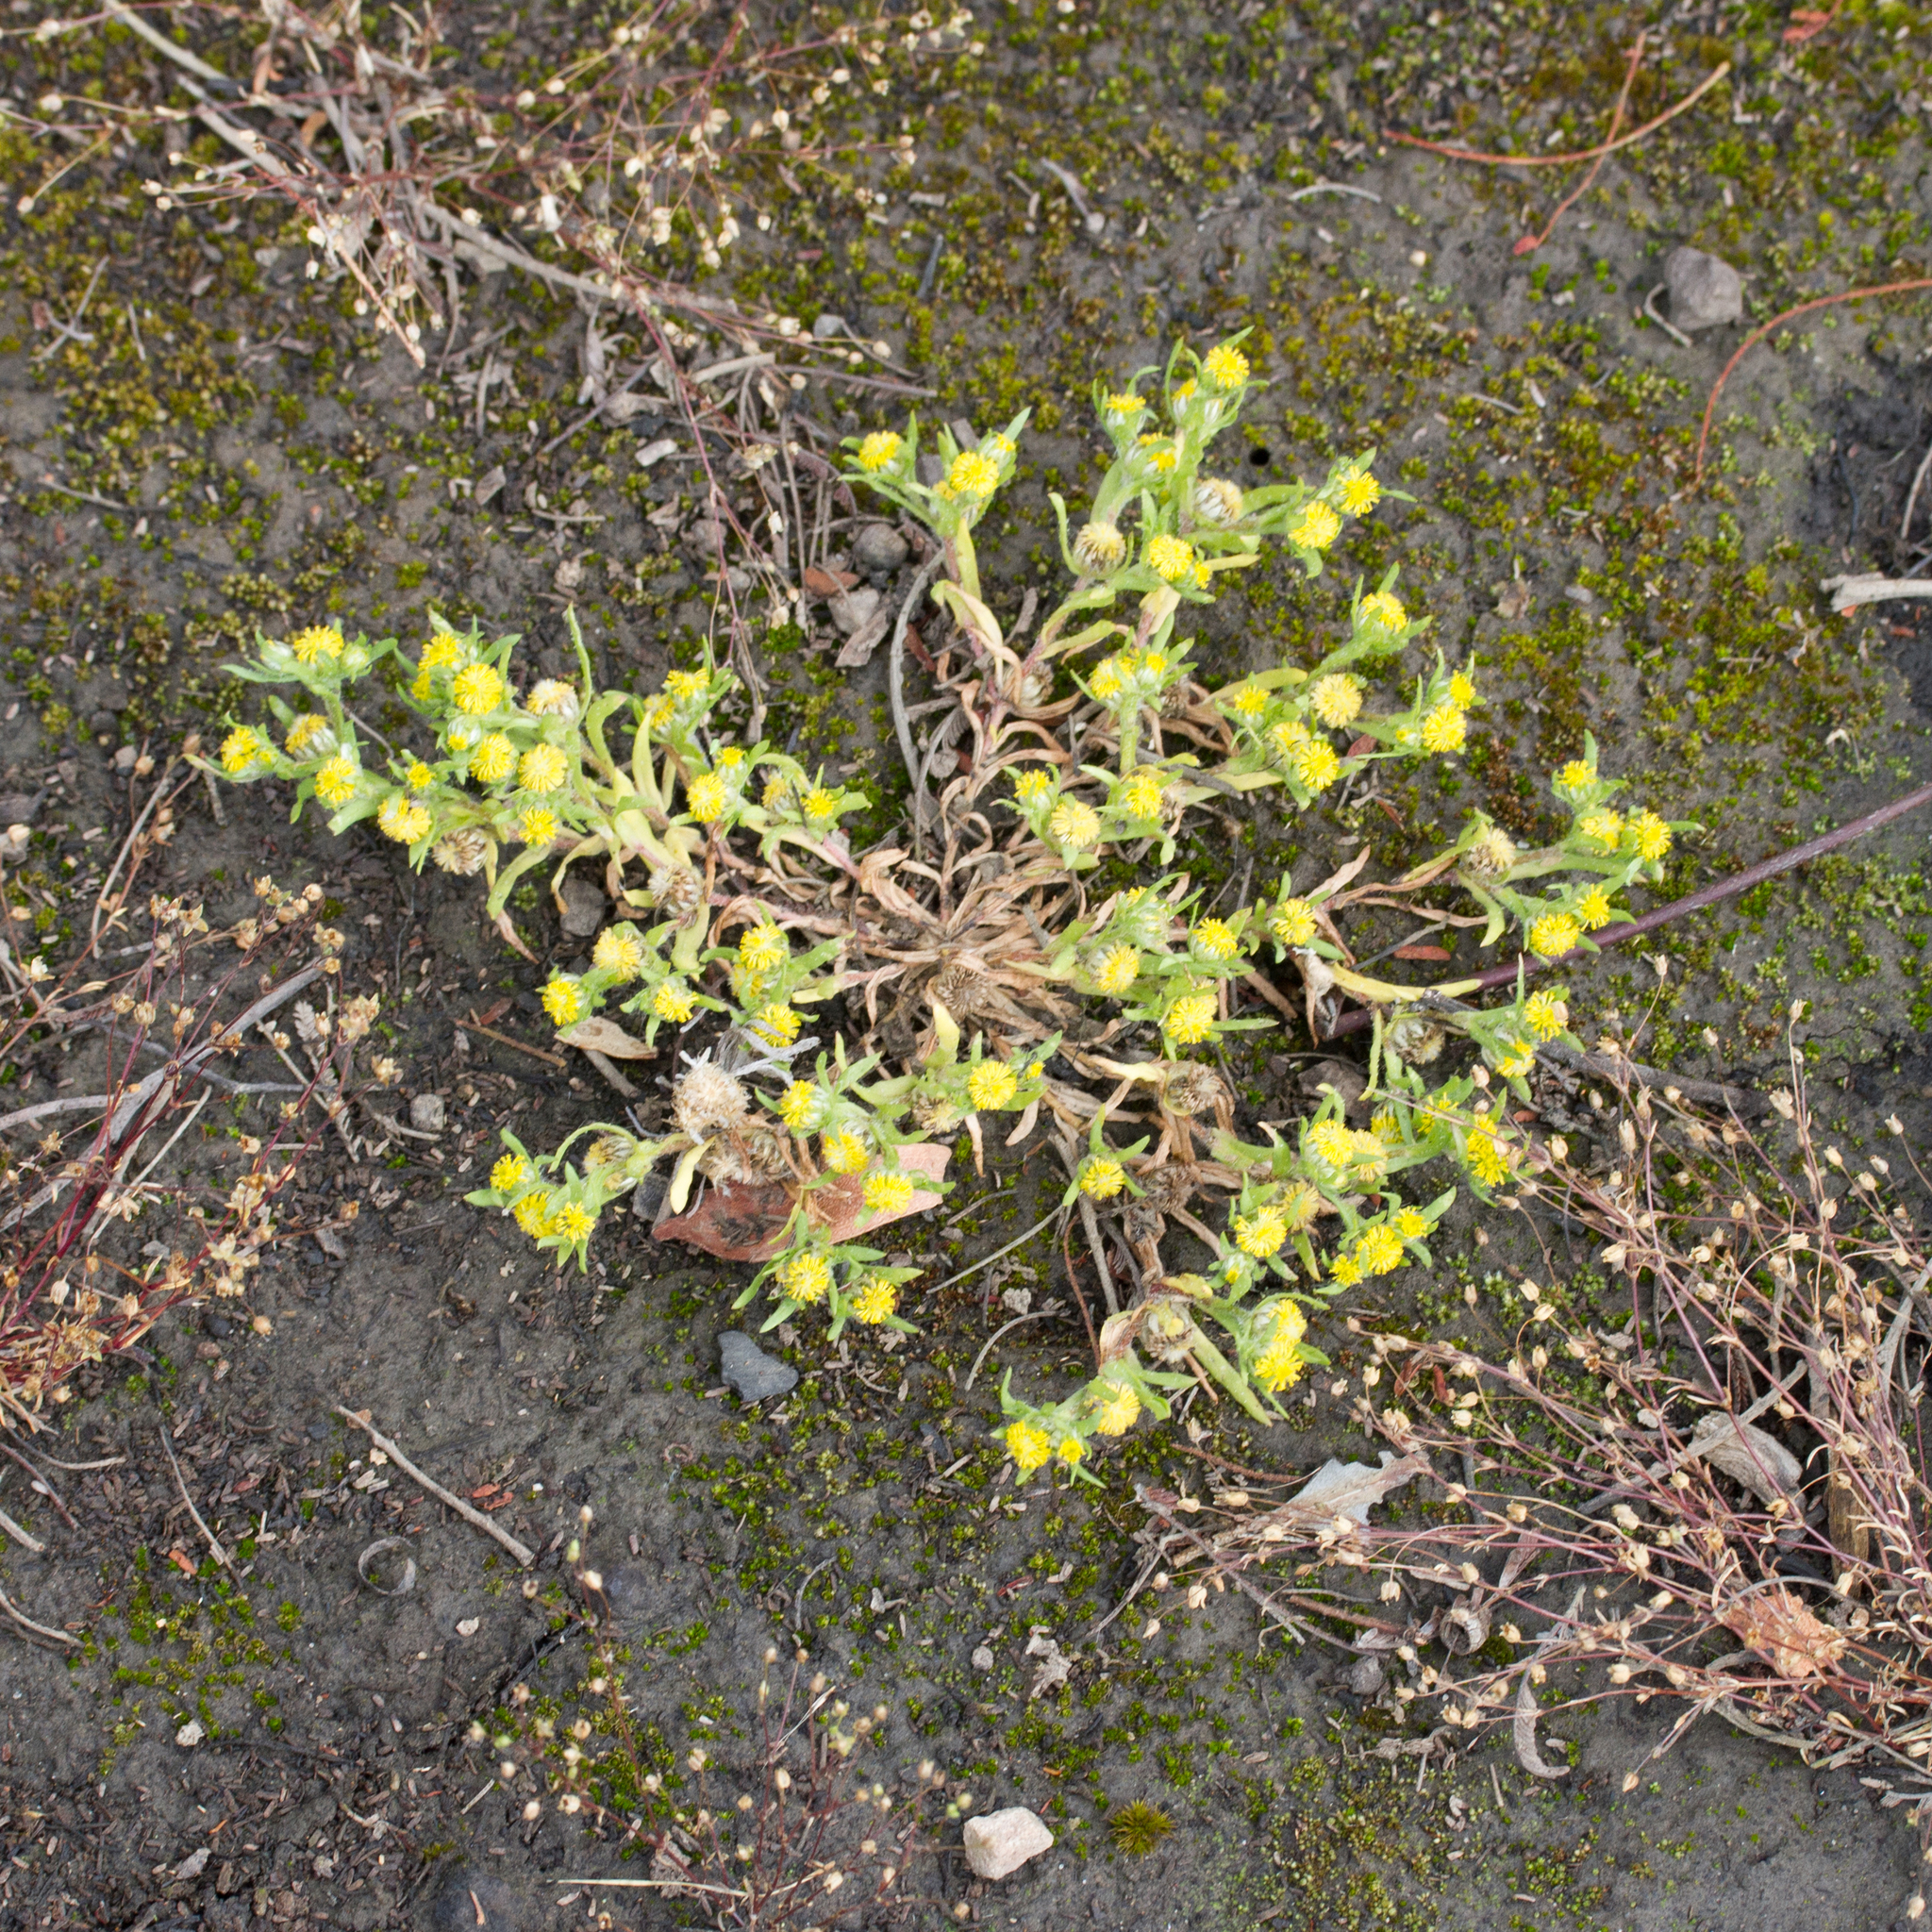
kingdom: Plantae
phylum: Tracheophyta
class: Magnoliopsida
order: Asterales
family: Asteraceae
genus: Triptilodiscus
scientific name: Triptilodiscus pygmaeus
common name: Common sunray
